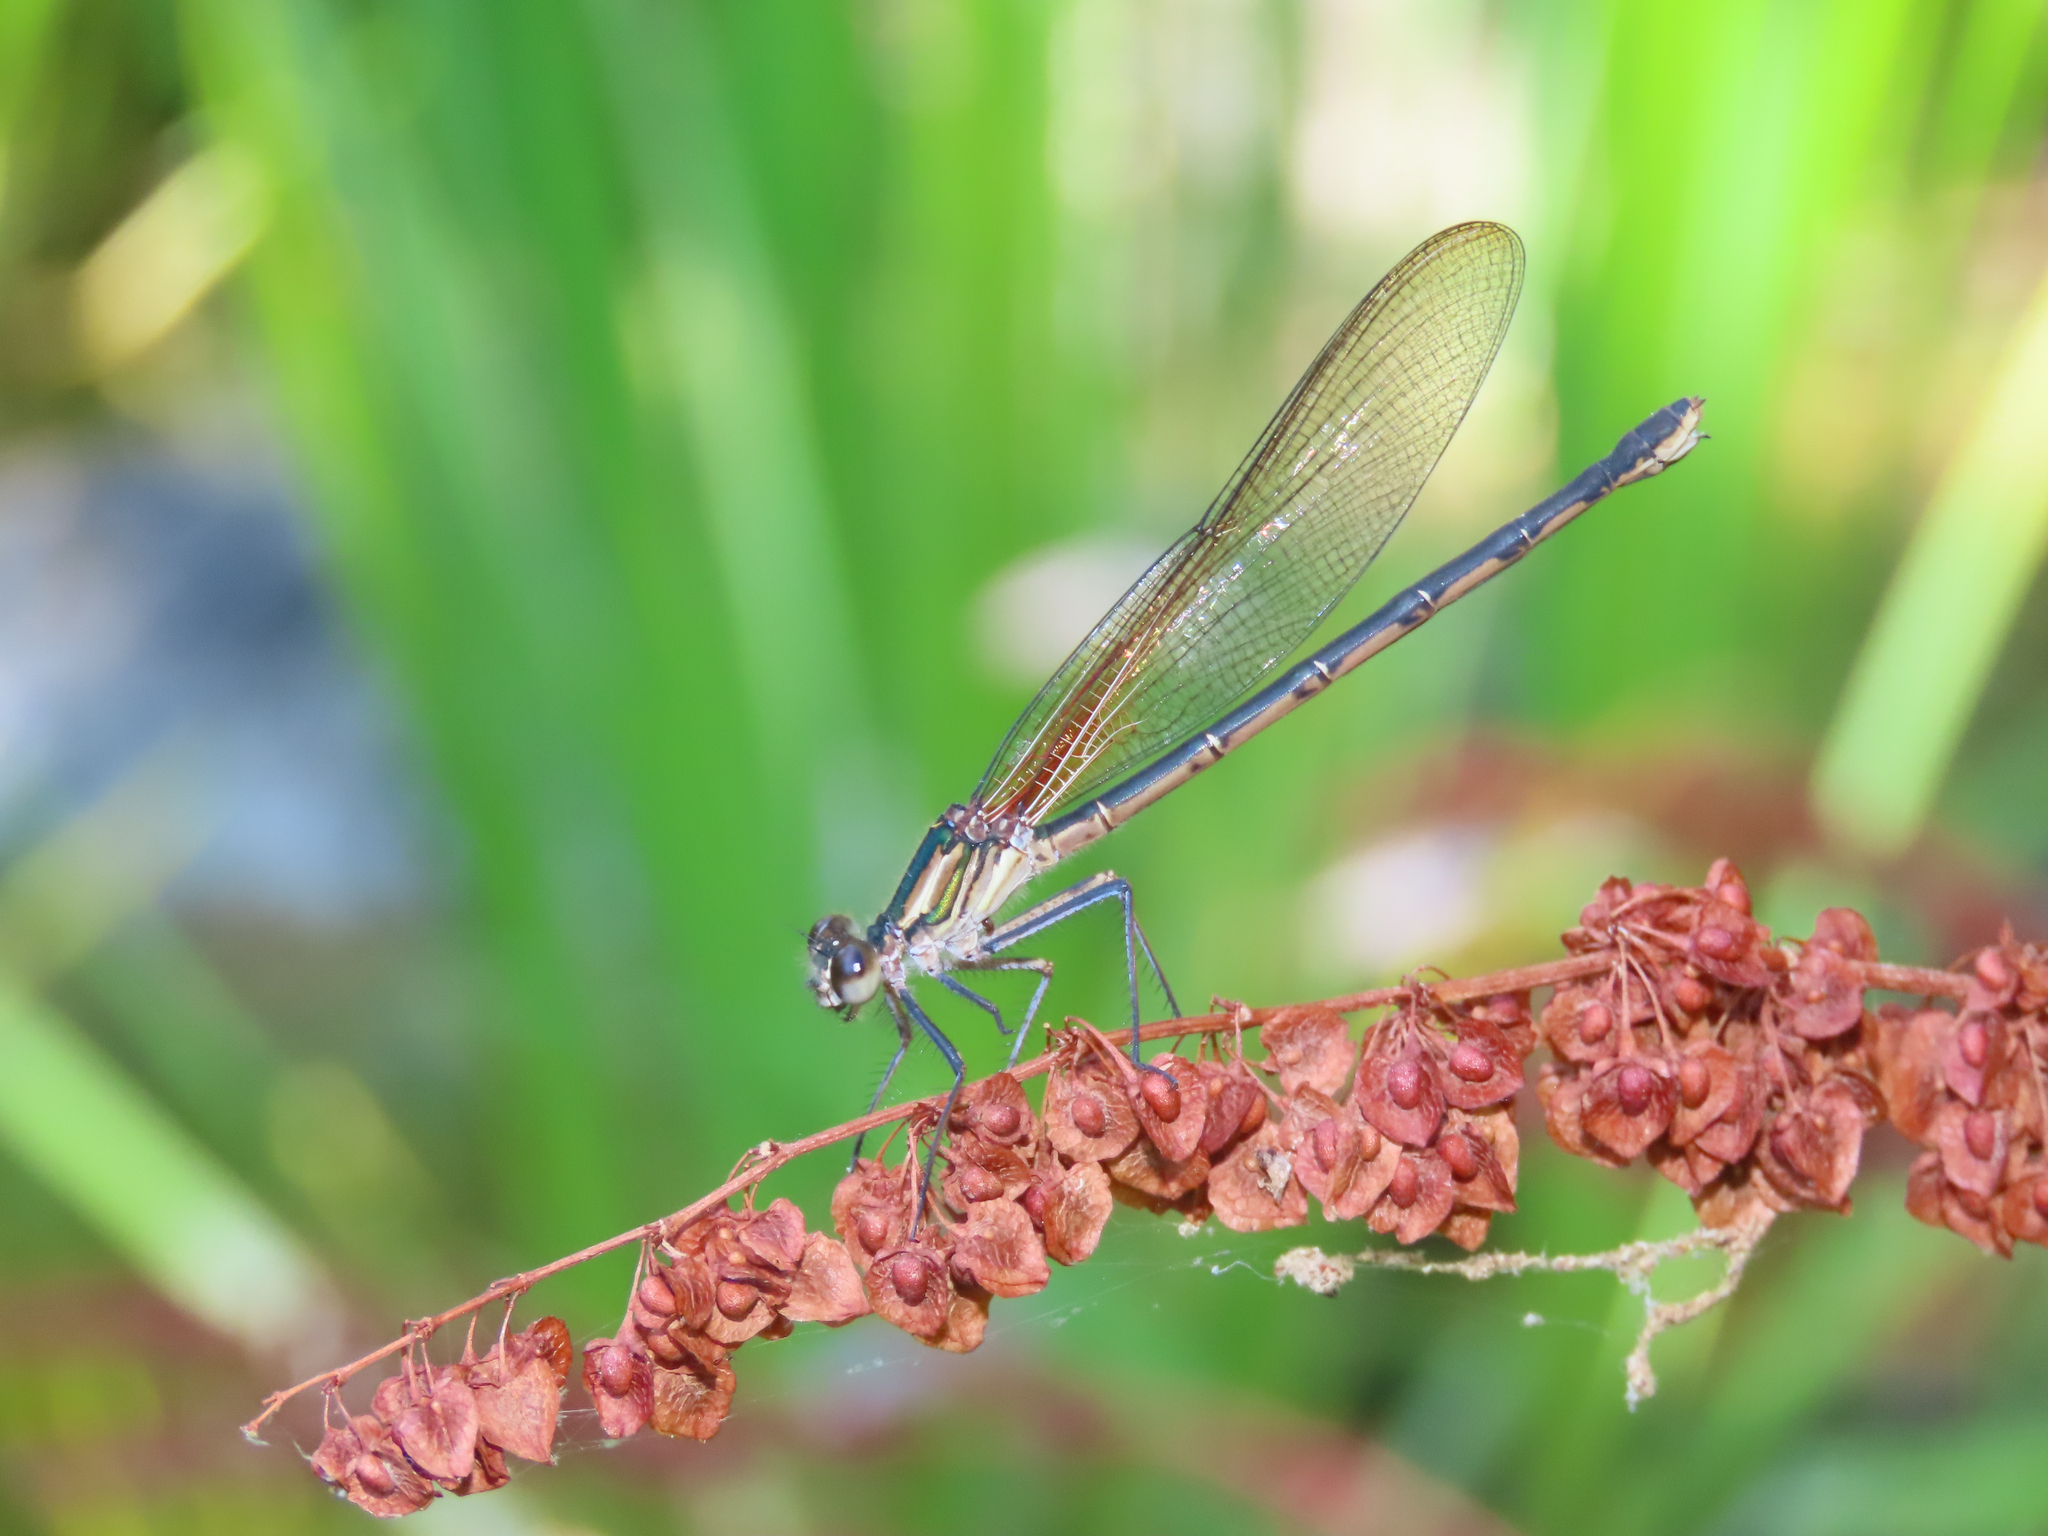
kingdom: Animalia
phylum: Arthropoda
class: Insecta
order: Odonata
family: Calopterygidae
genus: Hetaerina
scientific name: Hetaerina vulnerata
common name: Canyon rubyspot
